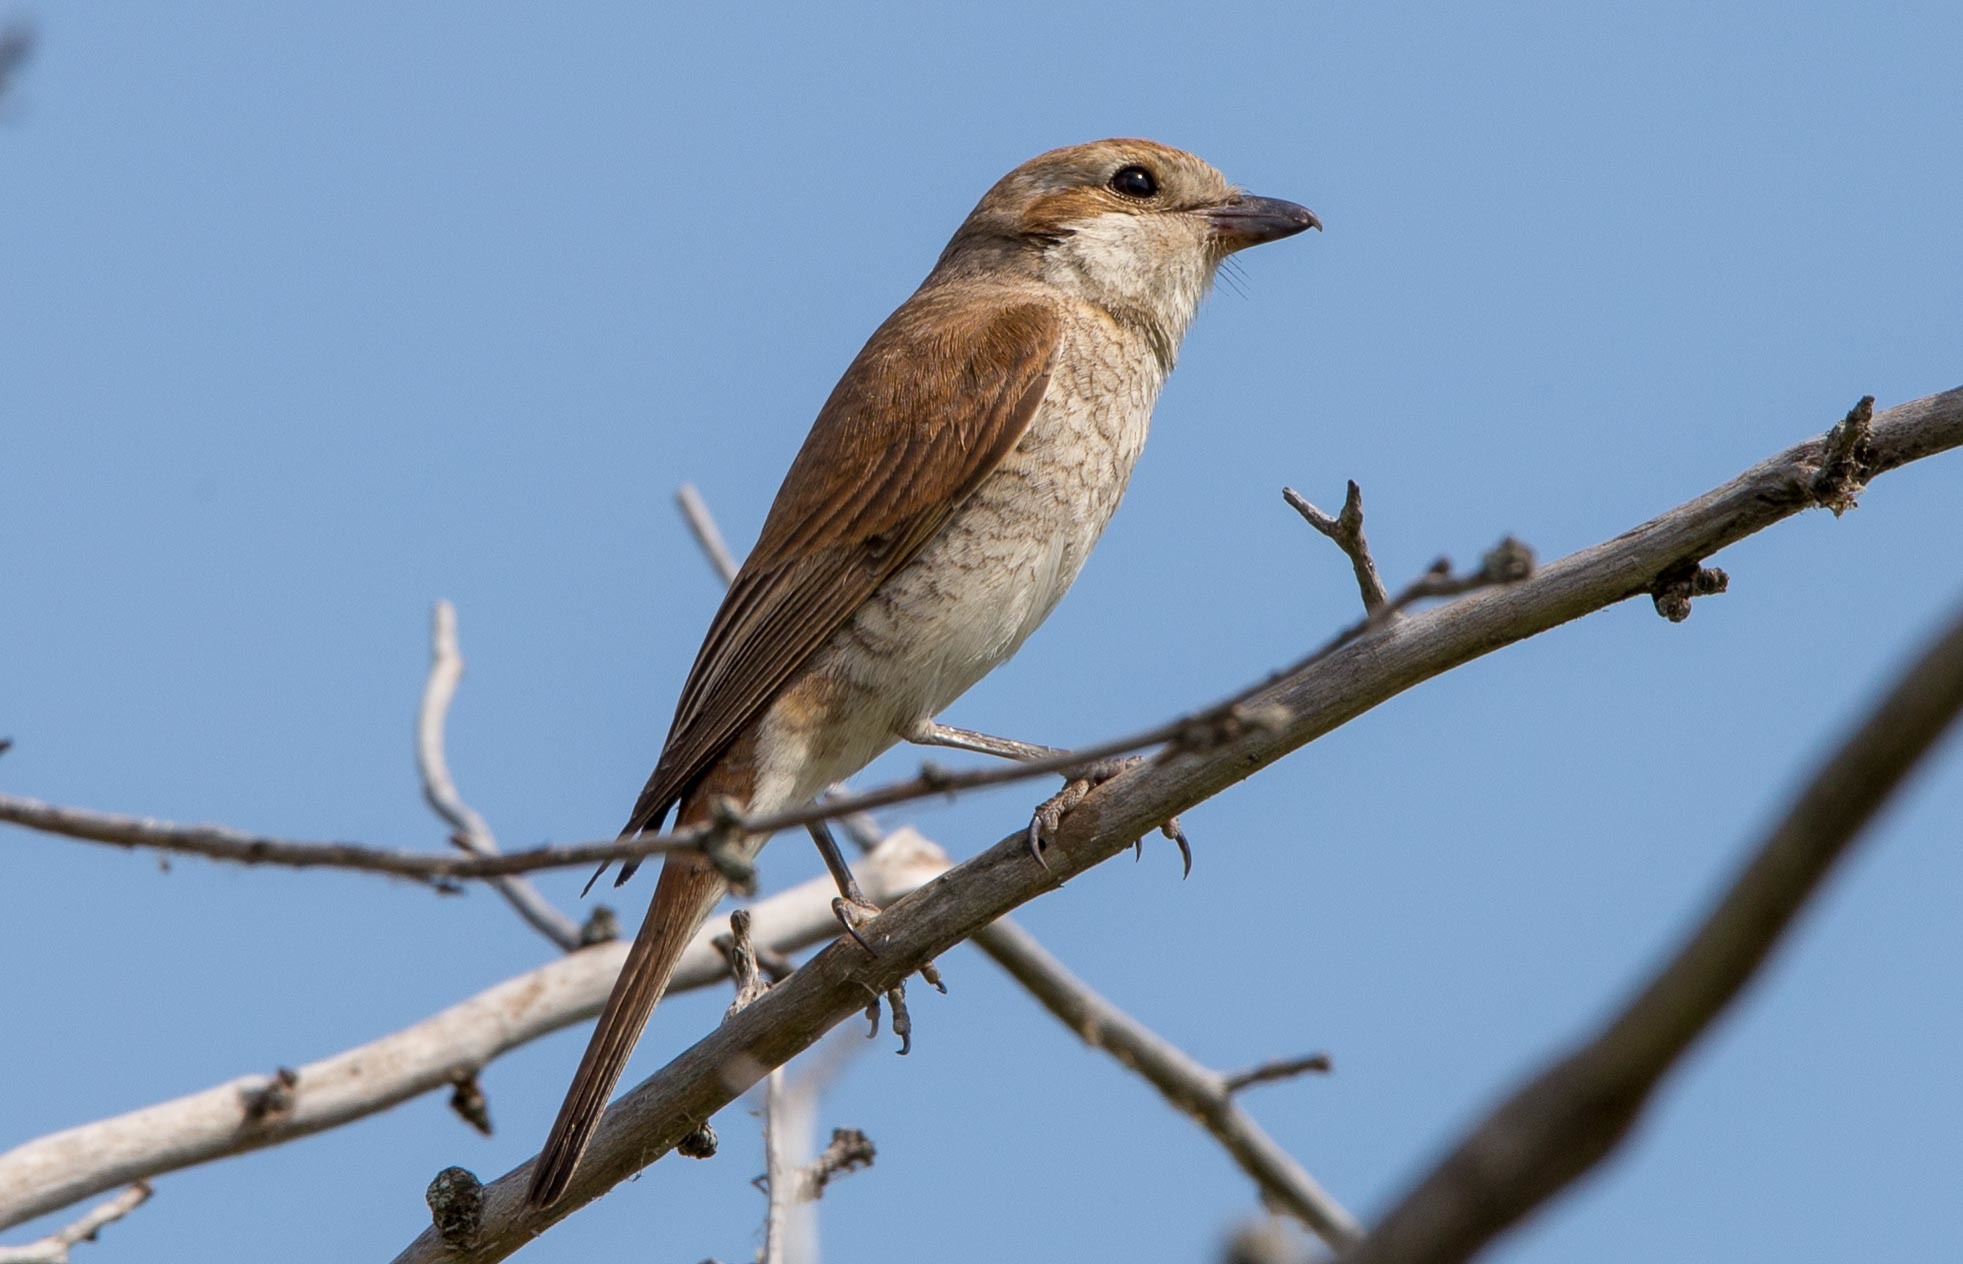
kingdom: Animalia
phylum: Chordata
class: Aves
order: Passeriformes
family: Laniidae
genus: Lanius
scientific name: Lanius collurio
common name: Red-backed shrike
